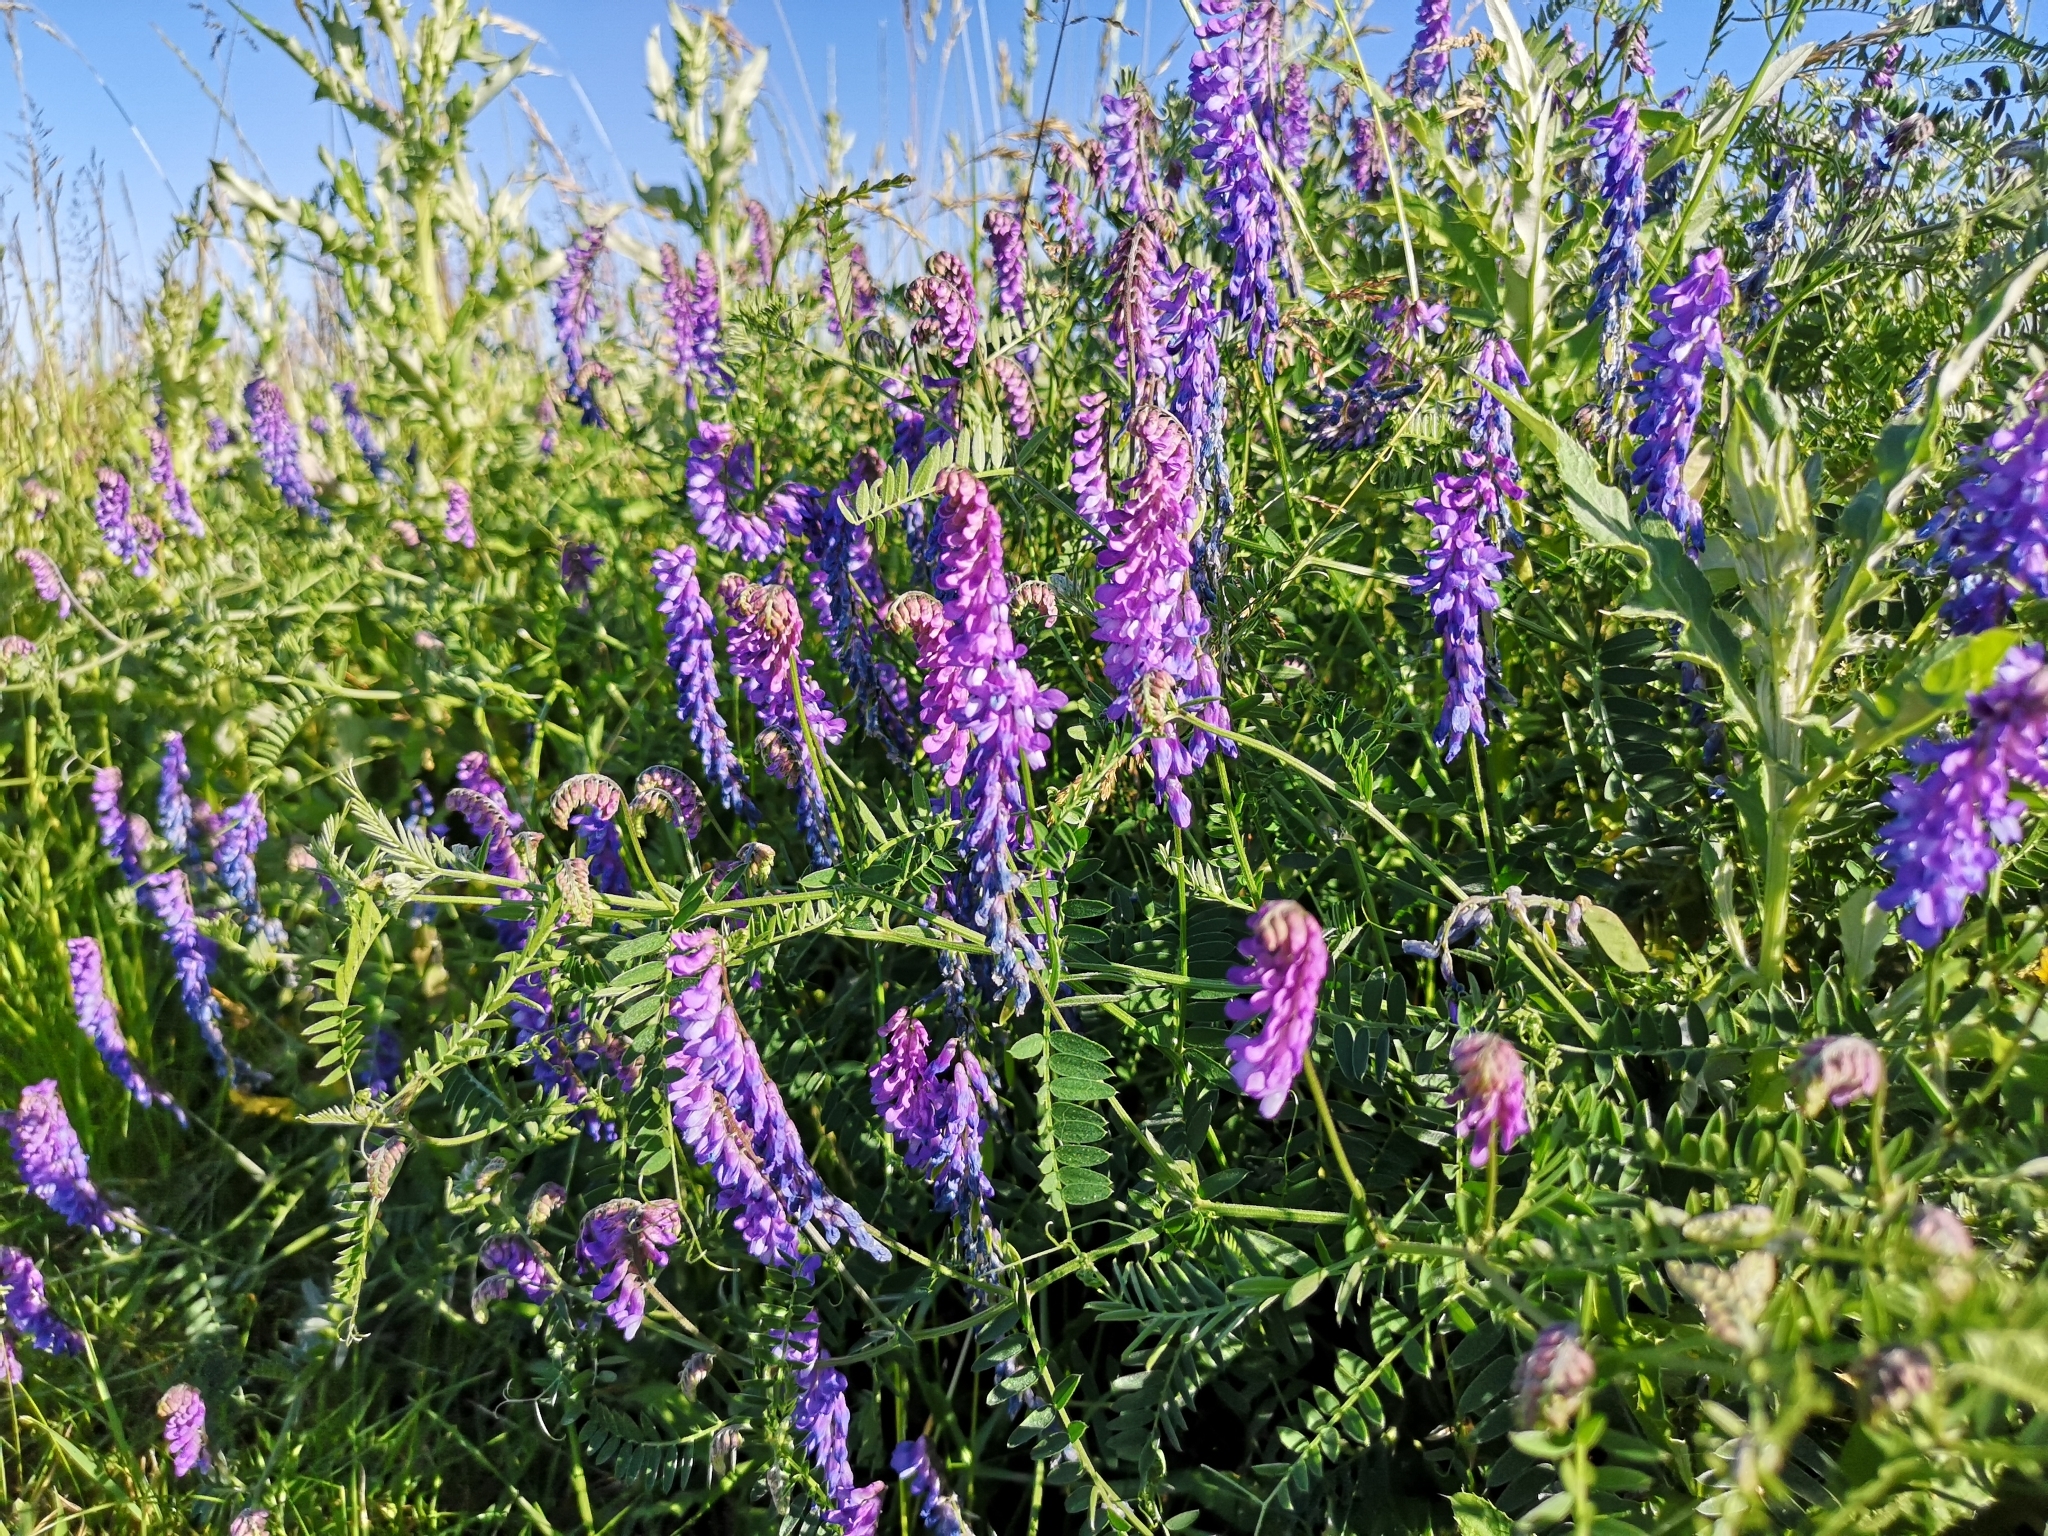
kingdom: Plantae
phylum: Tracheophyta
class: Magnoliopsida
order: Fabales
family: Fabaceae
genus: Vicia
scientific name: Vicia cracca
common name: Bird vetch
